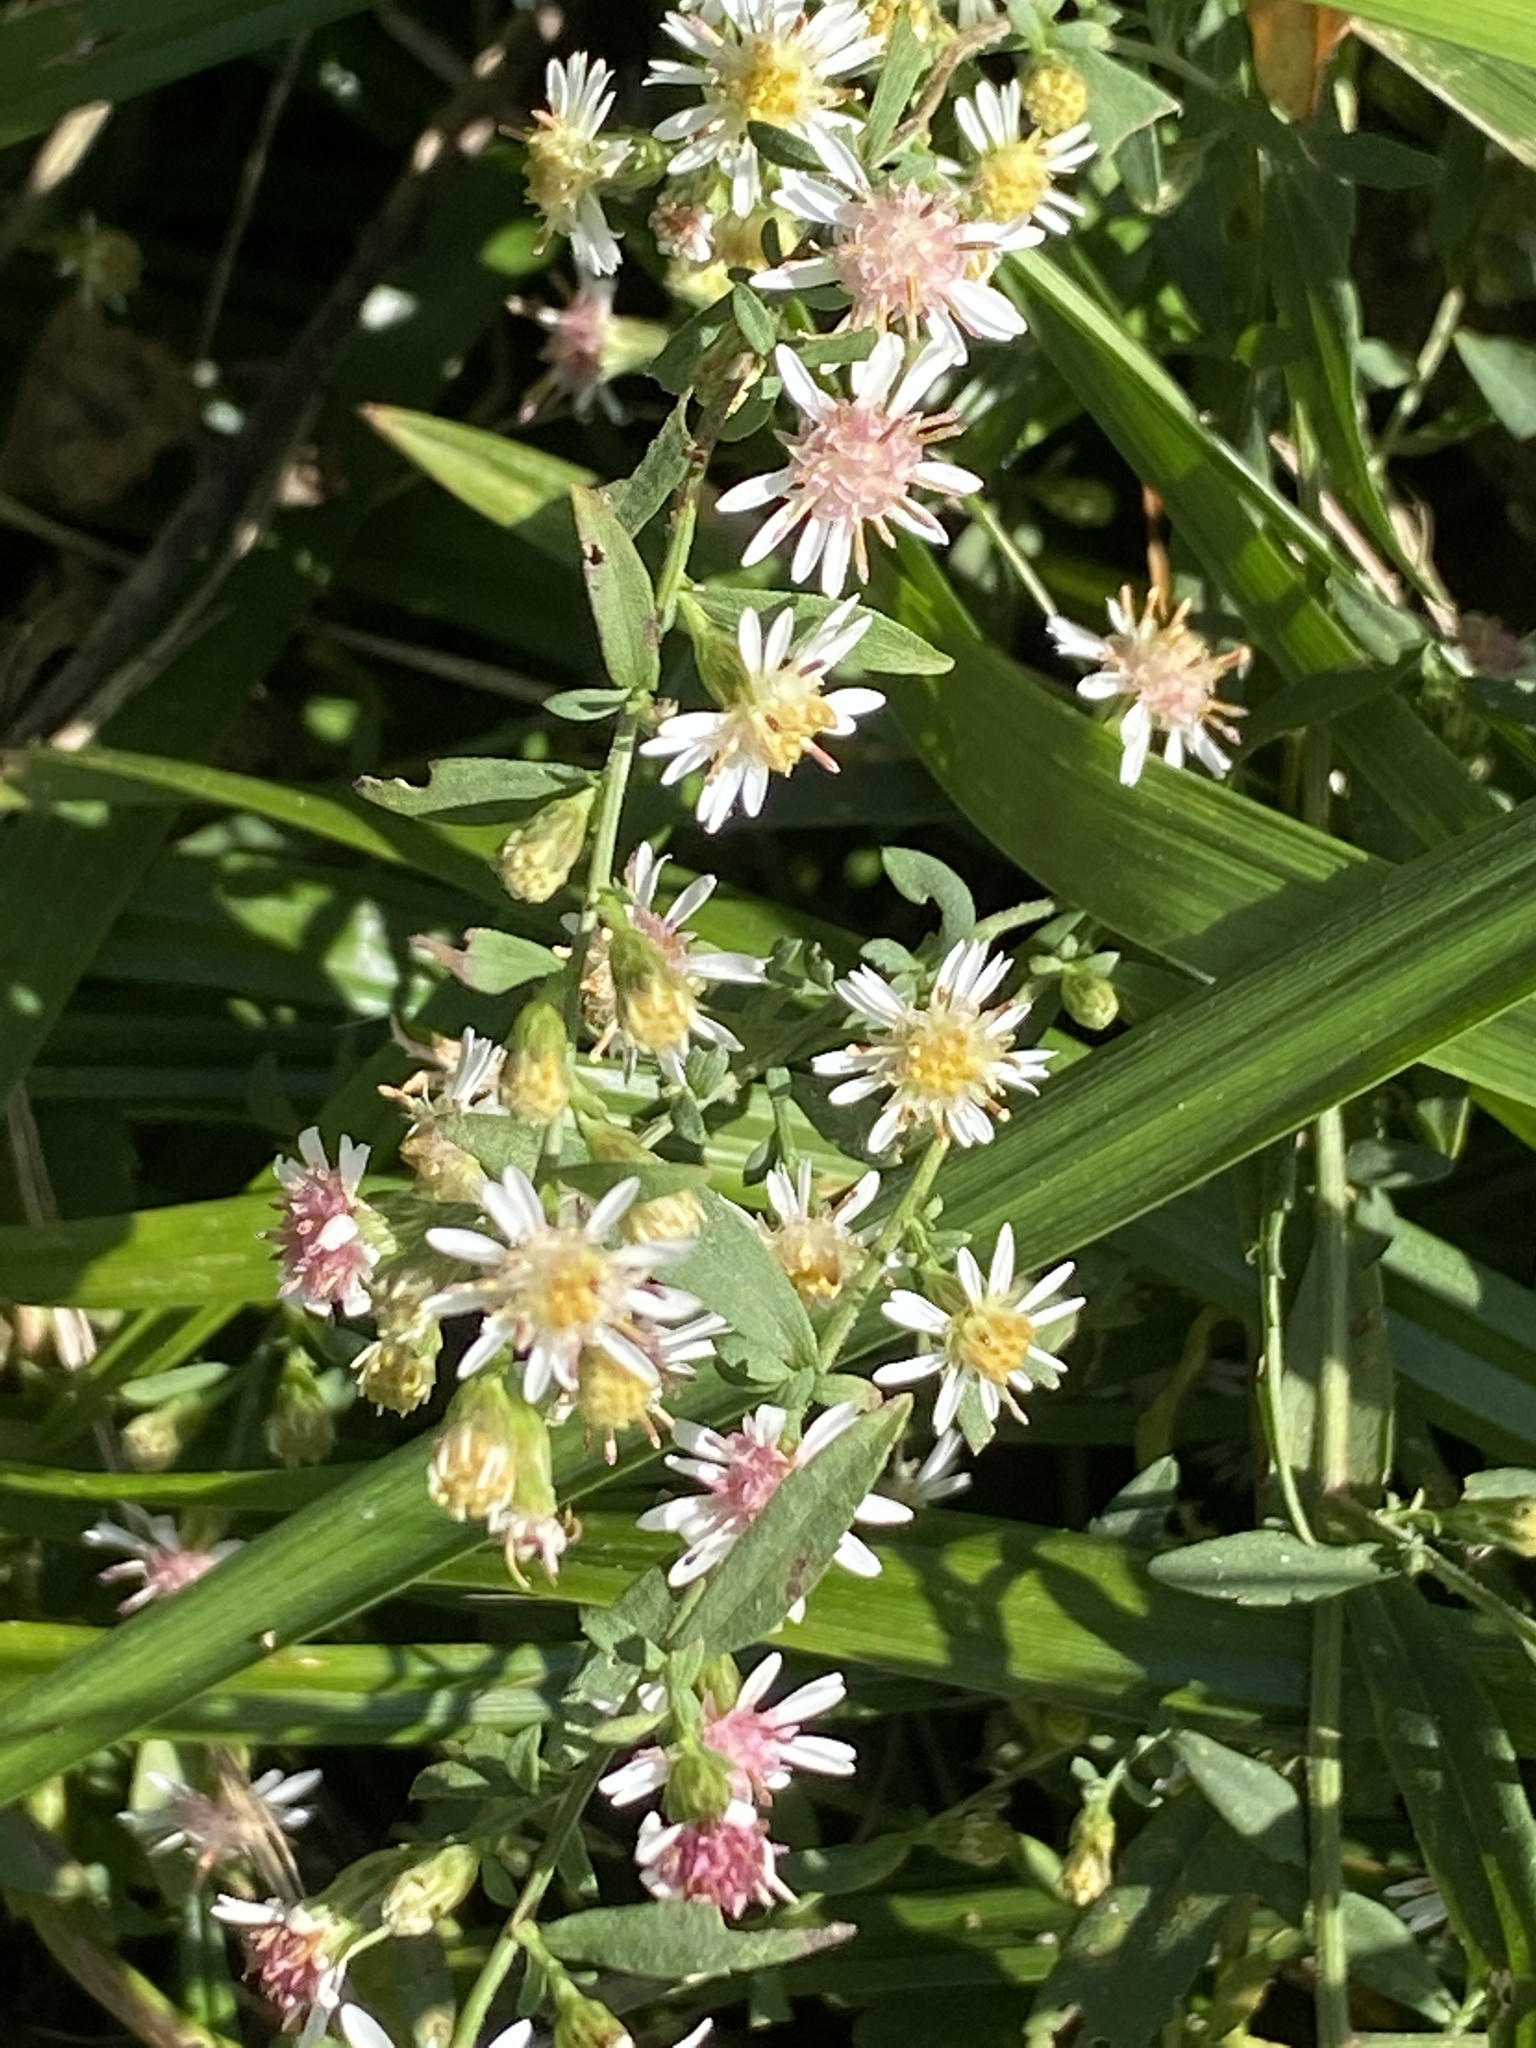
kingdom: Plantae
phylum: Tracheophyta
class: Magnoliopsida
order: Asterales
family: Asteraceae
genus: Symphyotrichum
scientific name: Symphyotrichum lateriflorum
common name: Calico aster
